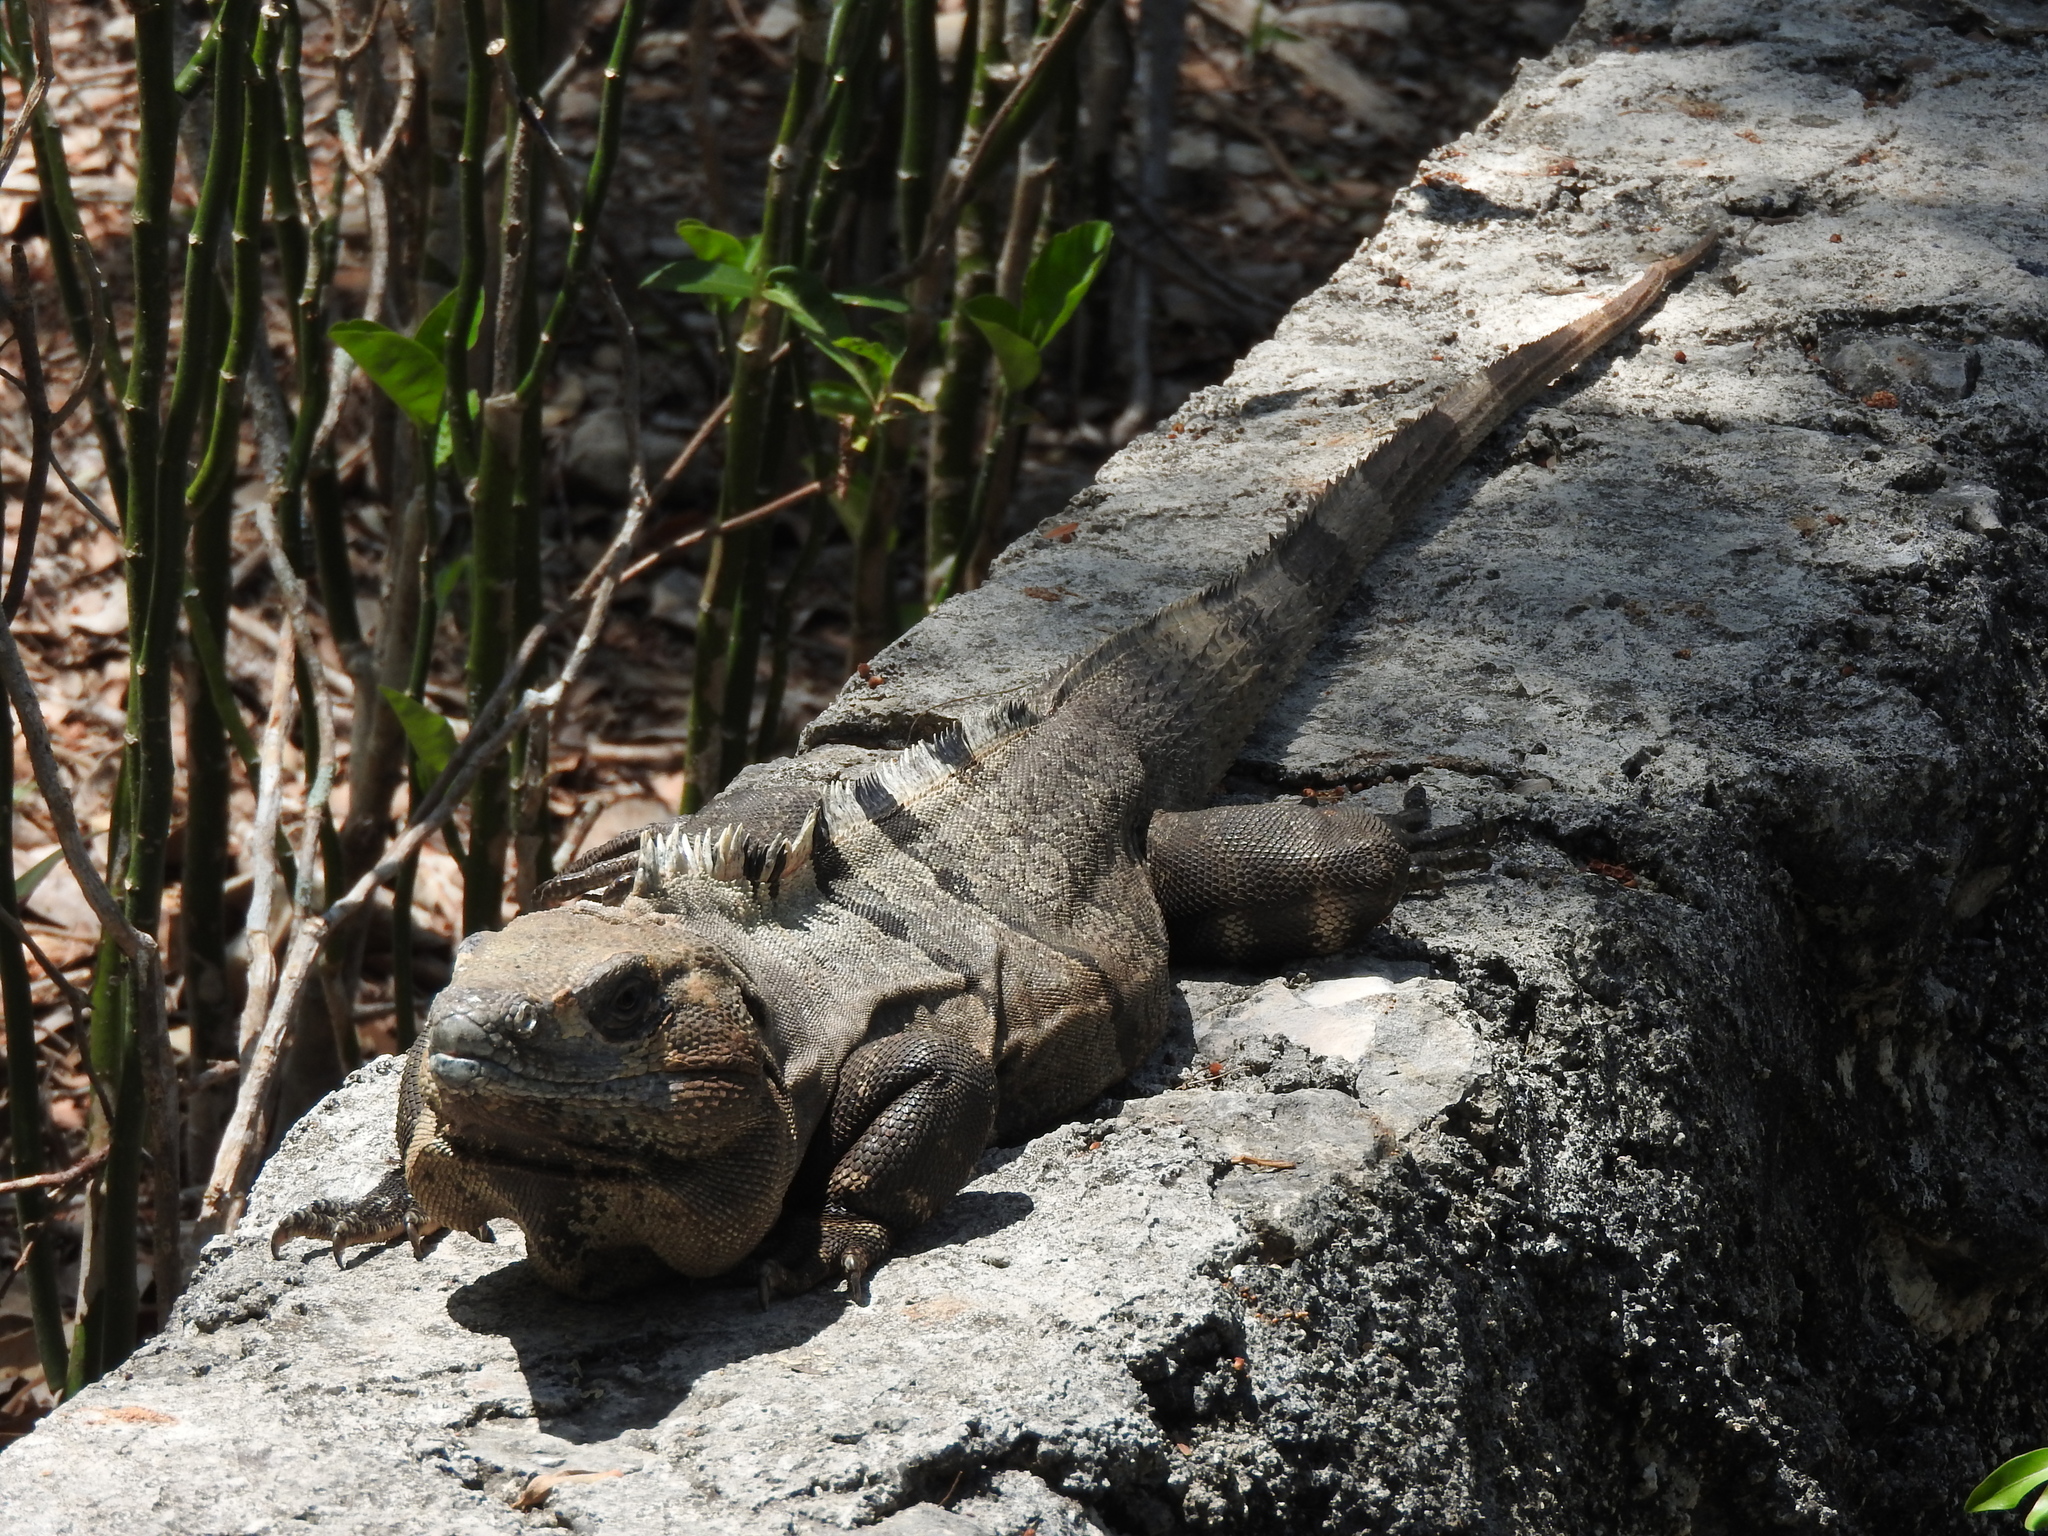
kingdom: Animalia
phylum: Chordata
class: Squamata
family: Iguanidae
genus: Ctenosaura
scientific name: Ctenosaura similis
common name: Black spiny-tailed iguana
